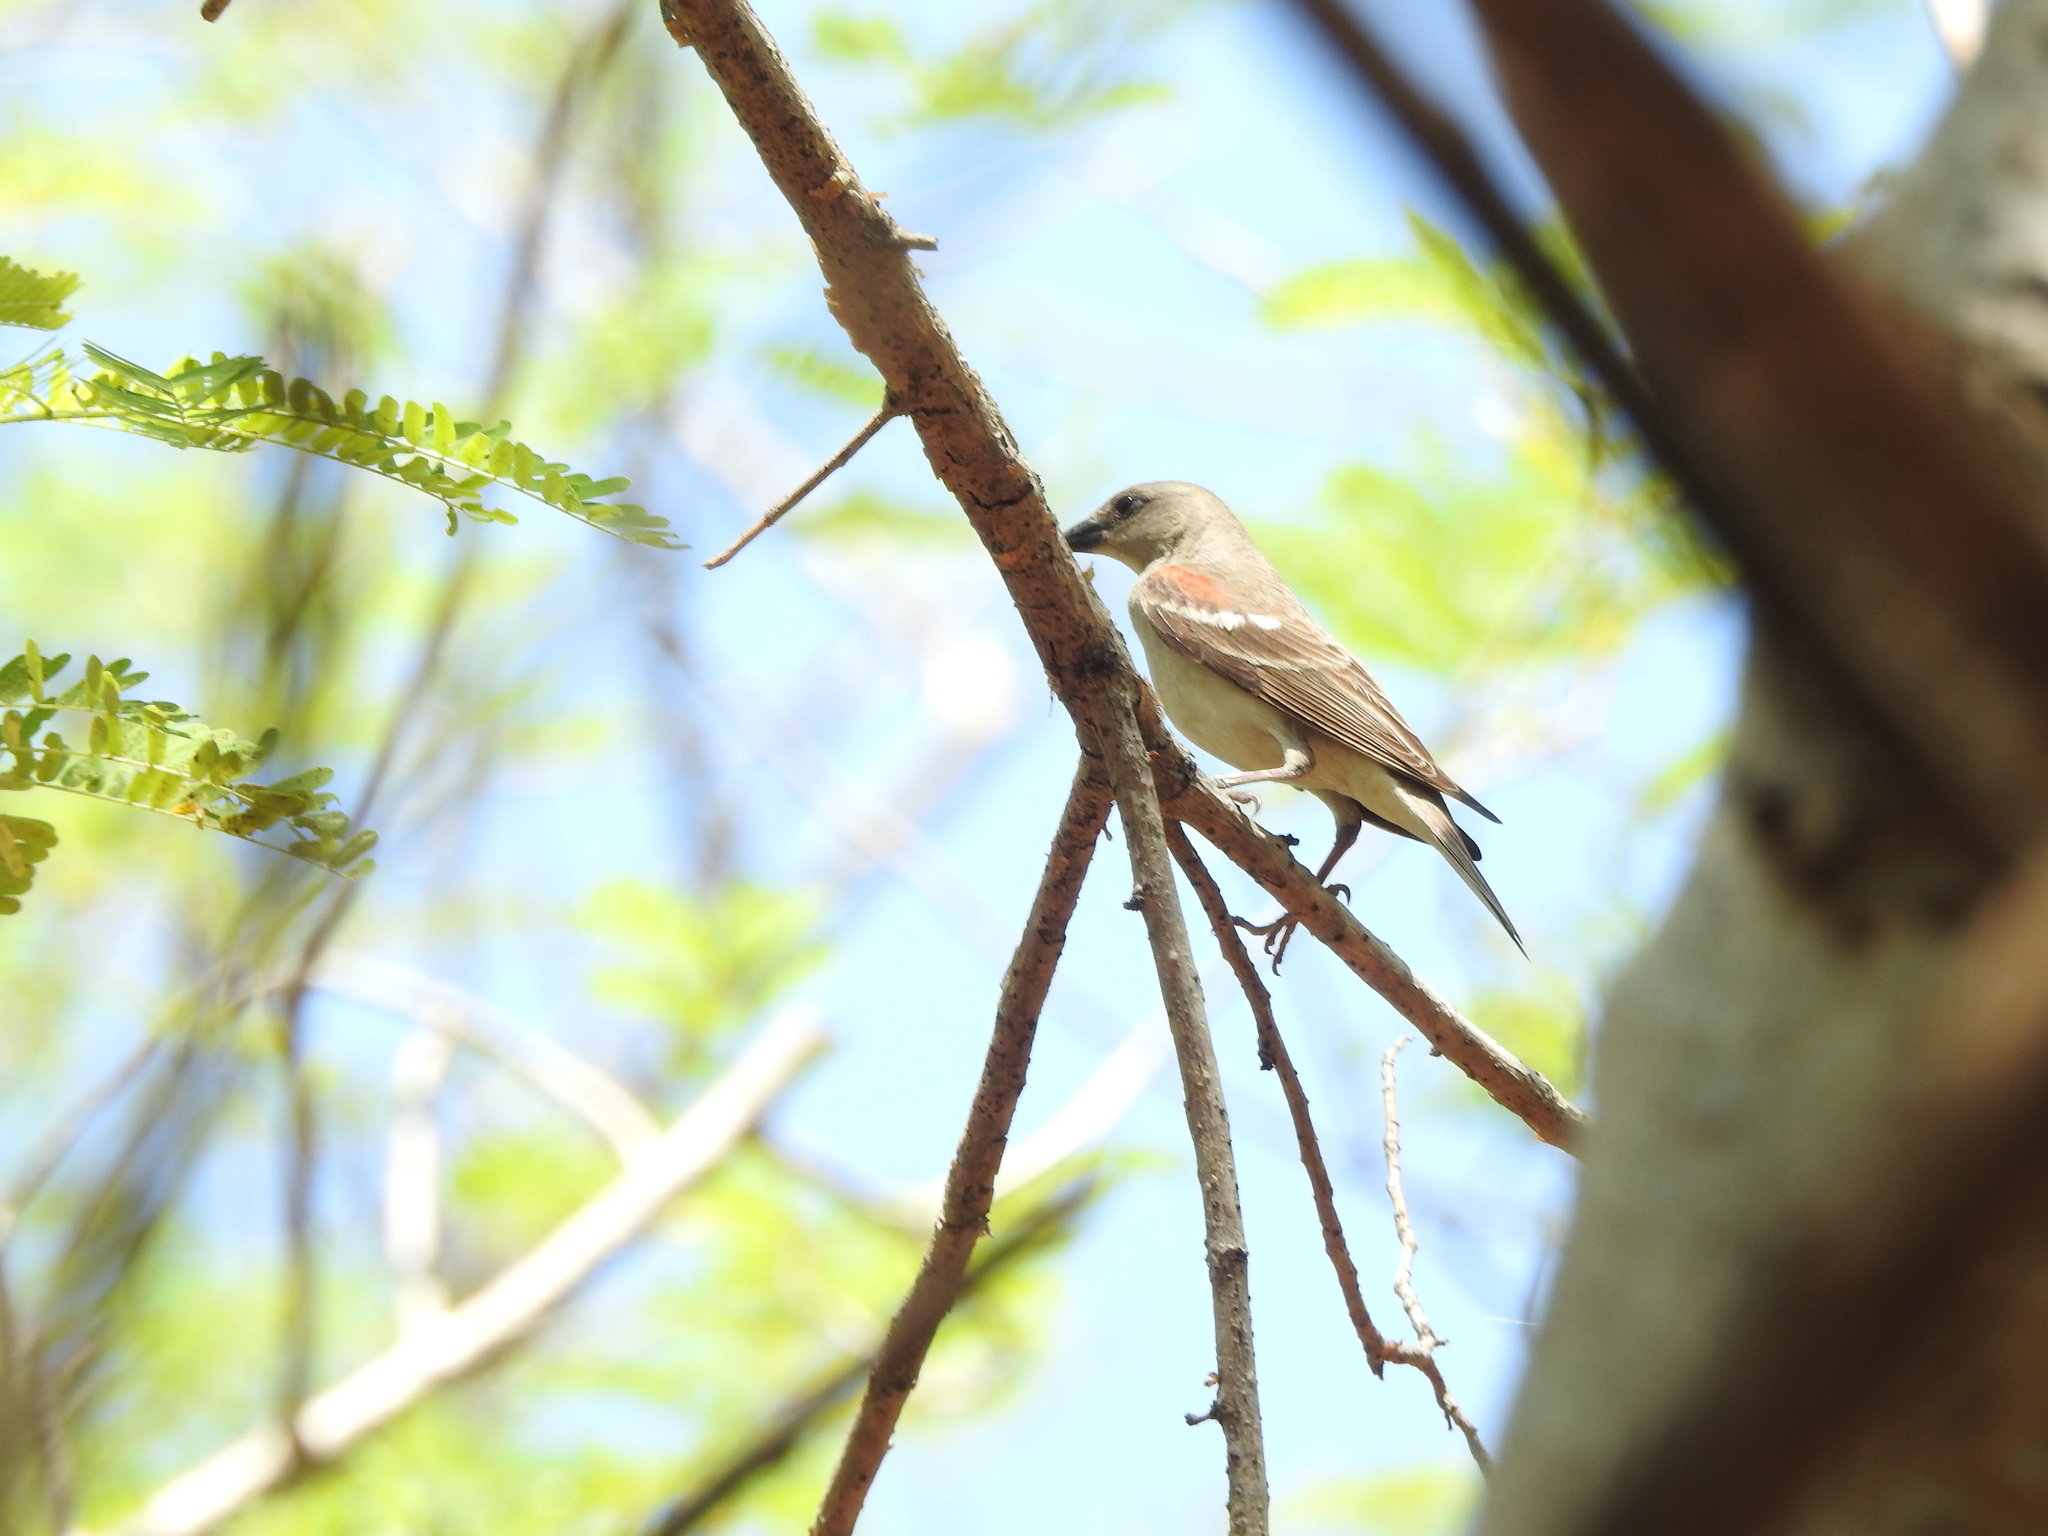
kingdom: Animalia
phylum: Chordata
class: Aves
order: Passeriformes
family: Passeridae
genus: Gymnoris
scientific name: Gymnoris xanthocollis
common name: Yellow-throated sparrow
